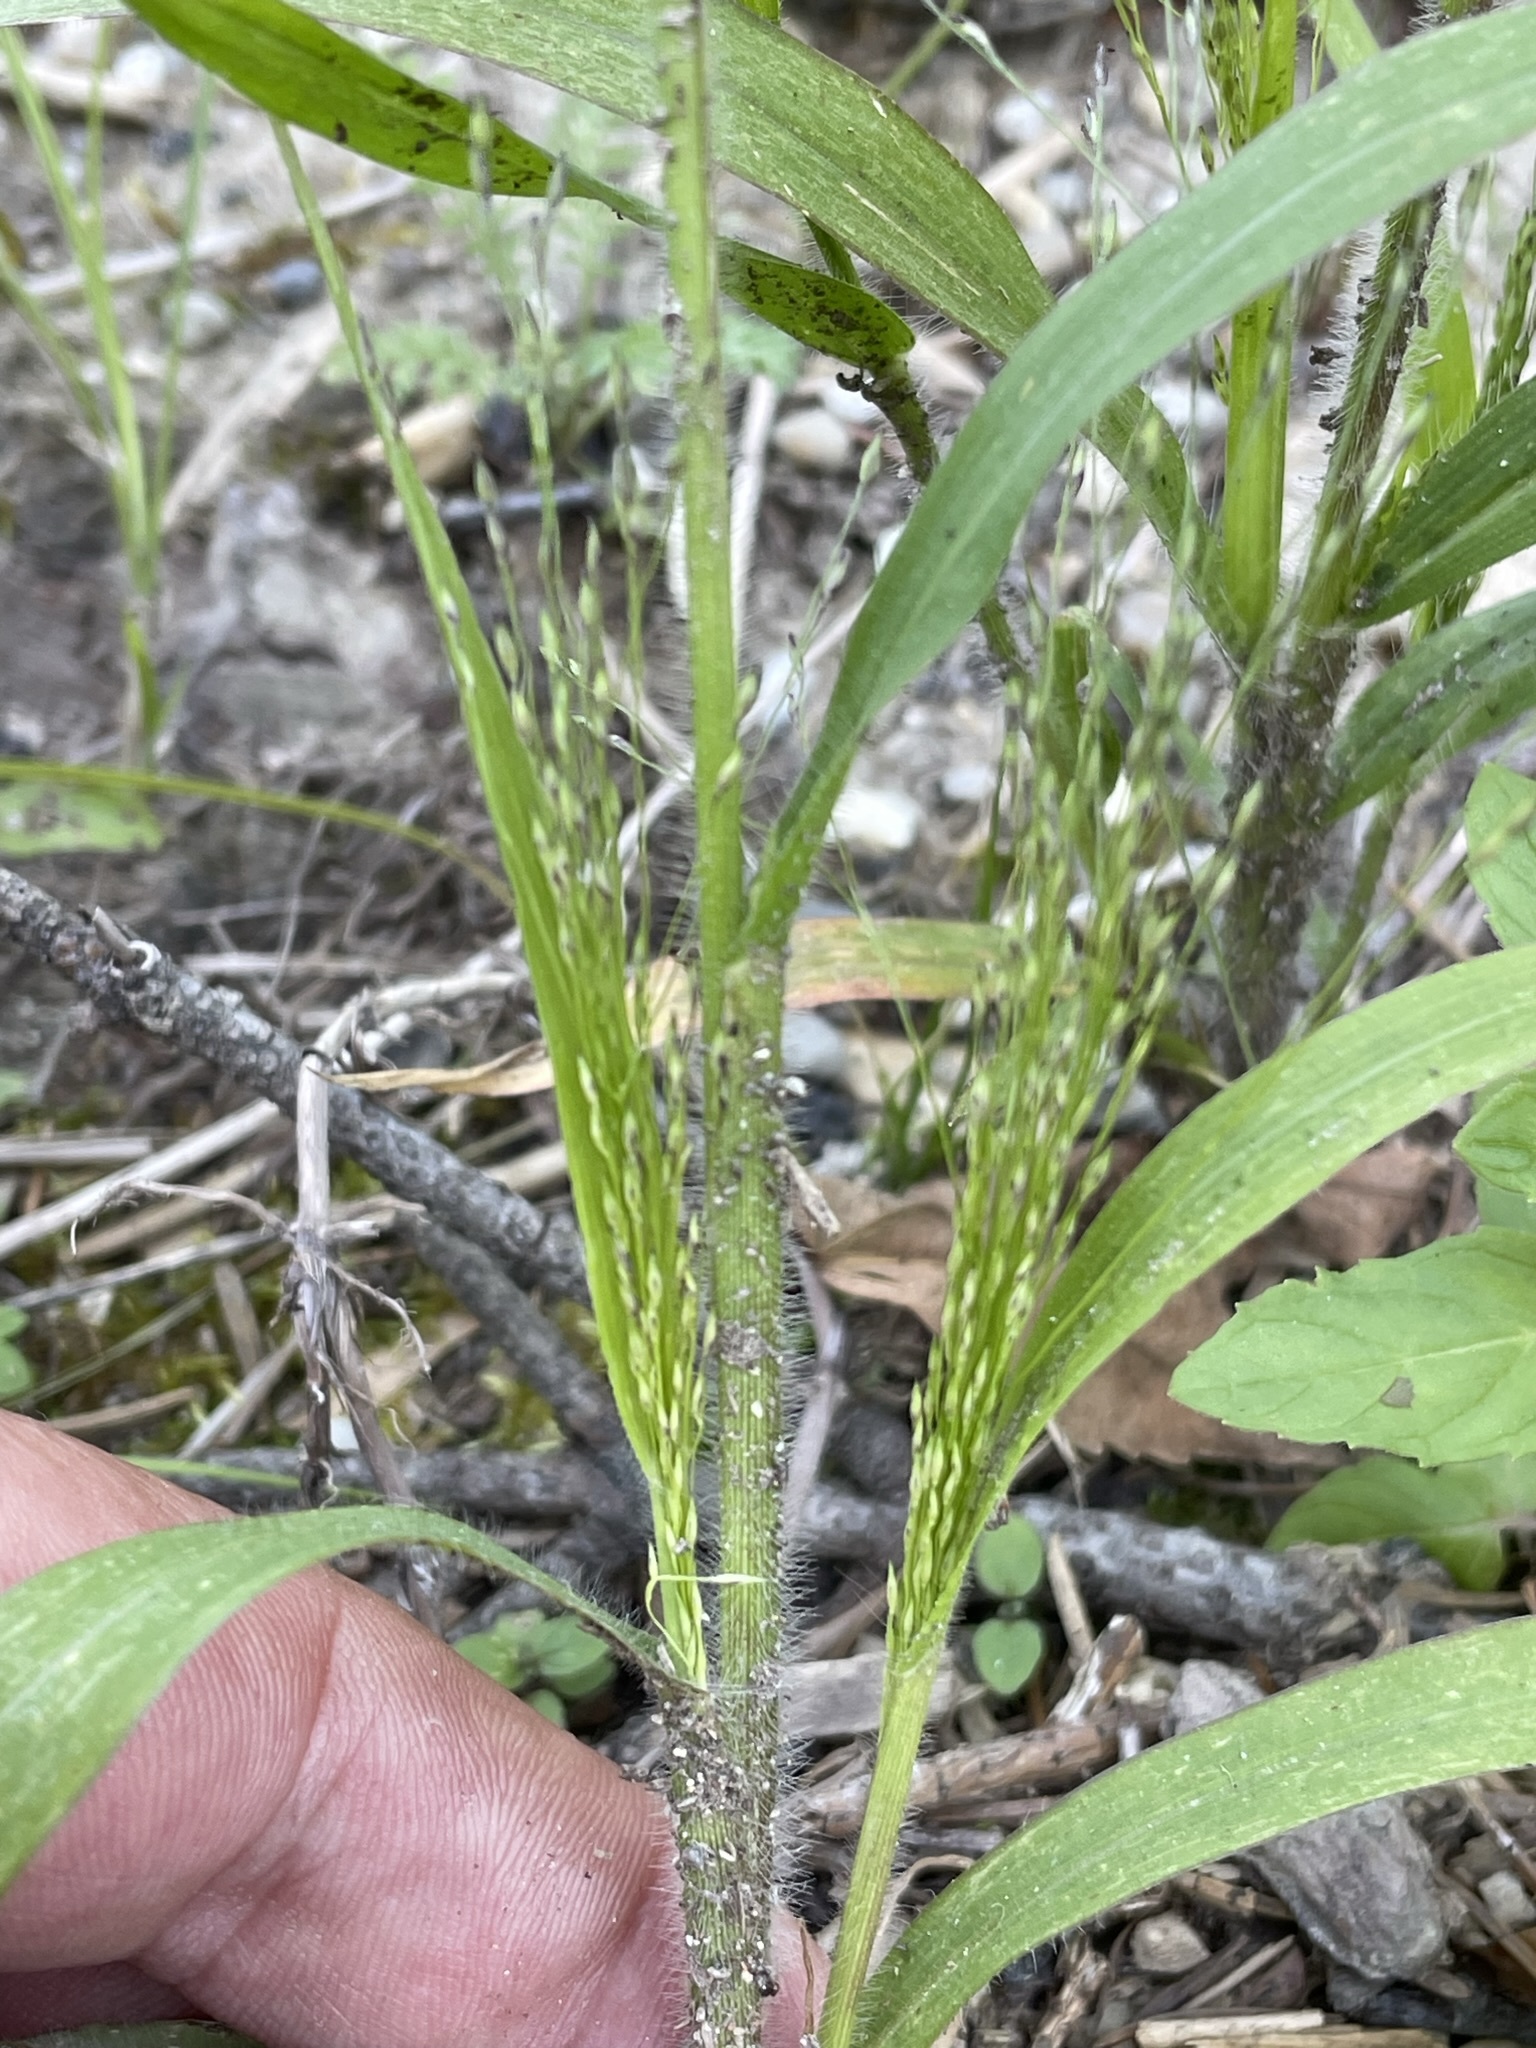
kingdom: Plantae
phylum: Tracheophyta
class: Liliopsida
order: Poales
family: Poaceae
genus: Panicum
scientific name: Panicum capillare
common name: Witch-grass
